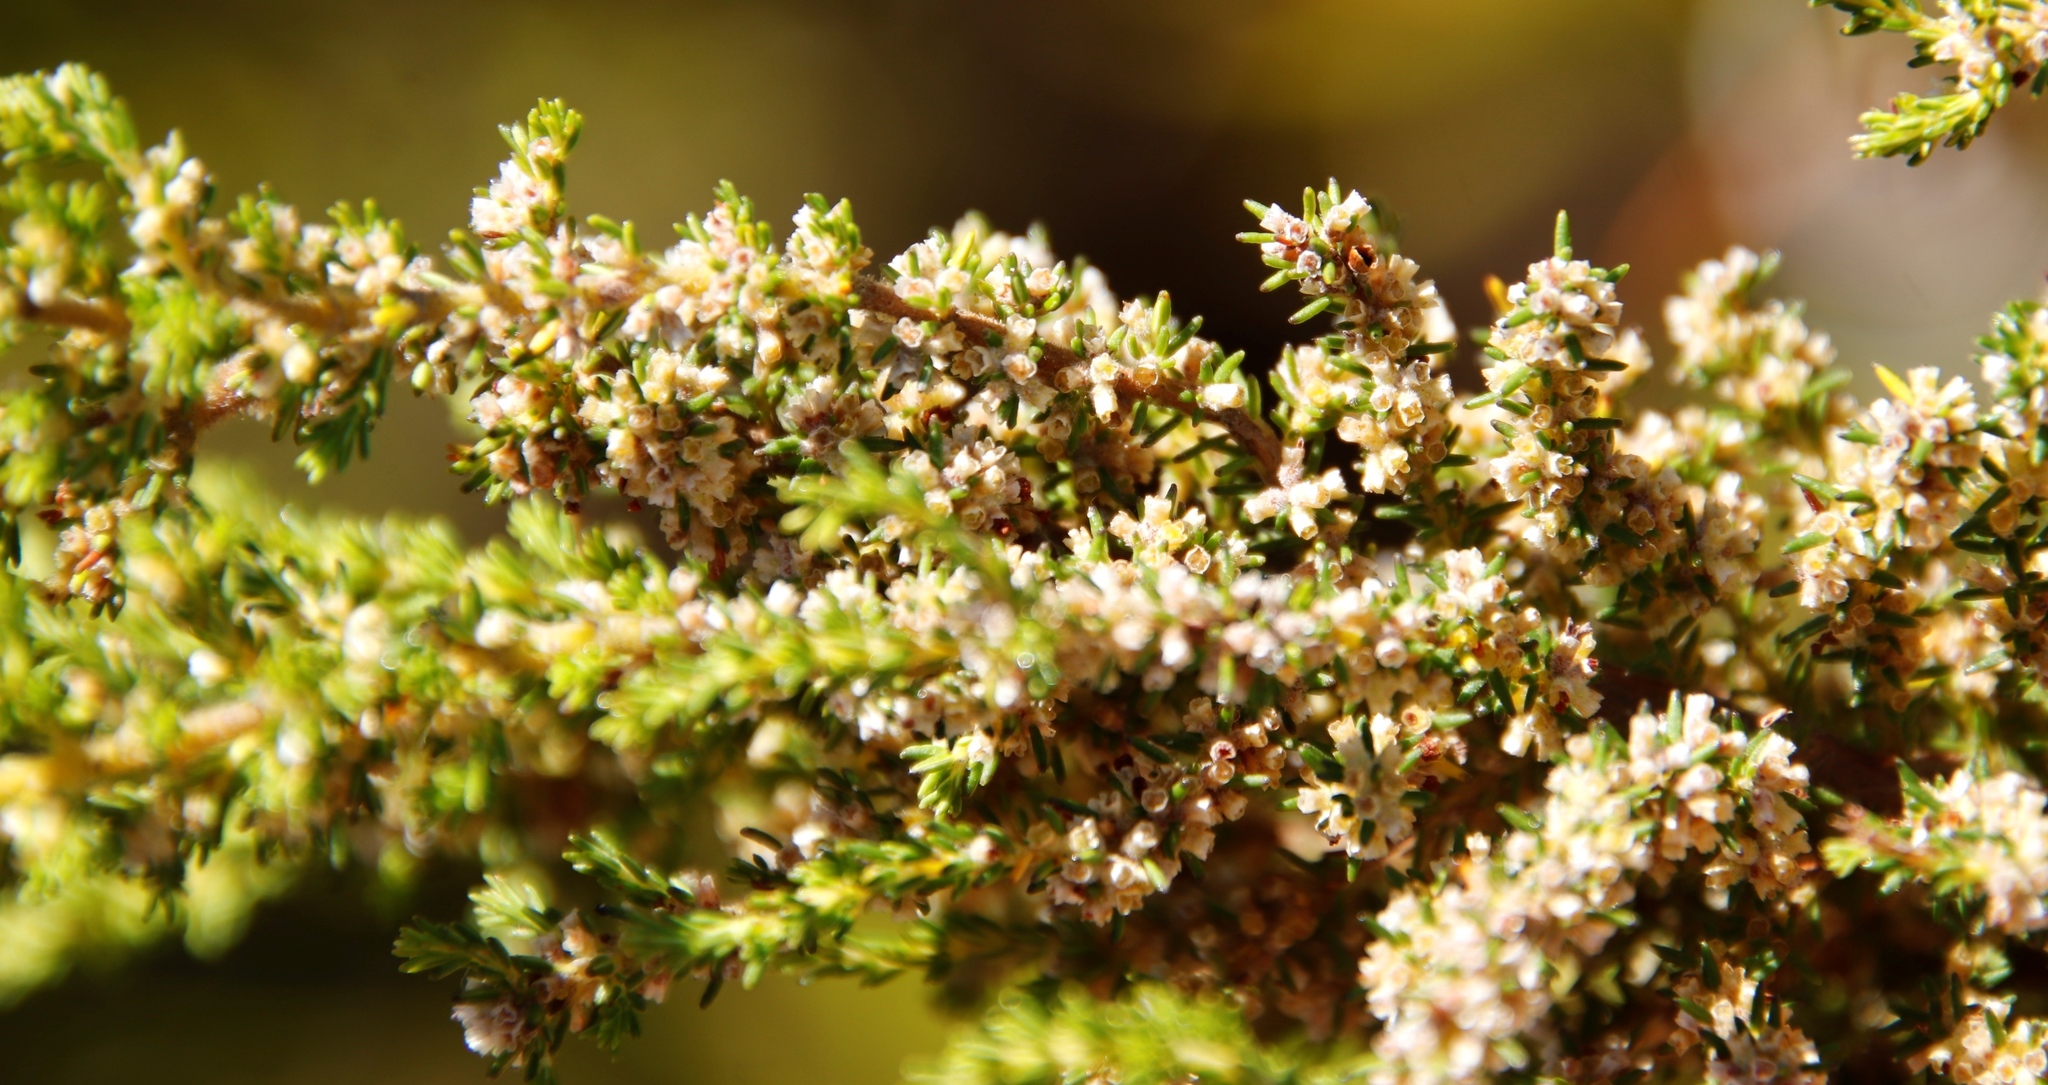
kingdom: Plantae
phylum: Tracheophyta
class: Magnoliopsida
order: Ericales
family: Ericaceae
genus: Erica
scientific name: Erica muscosa
